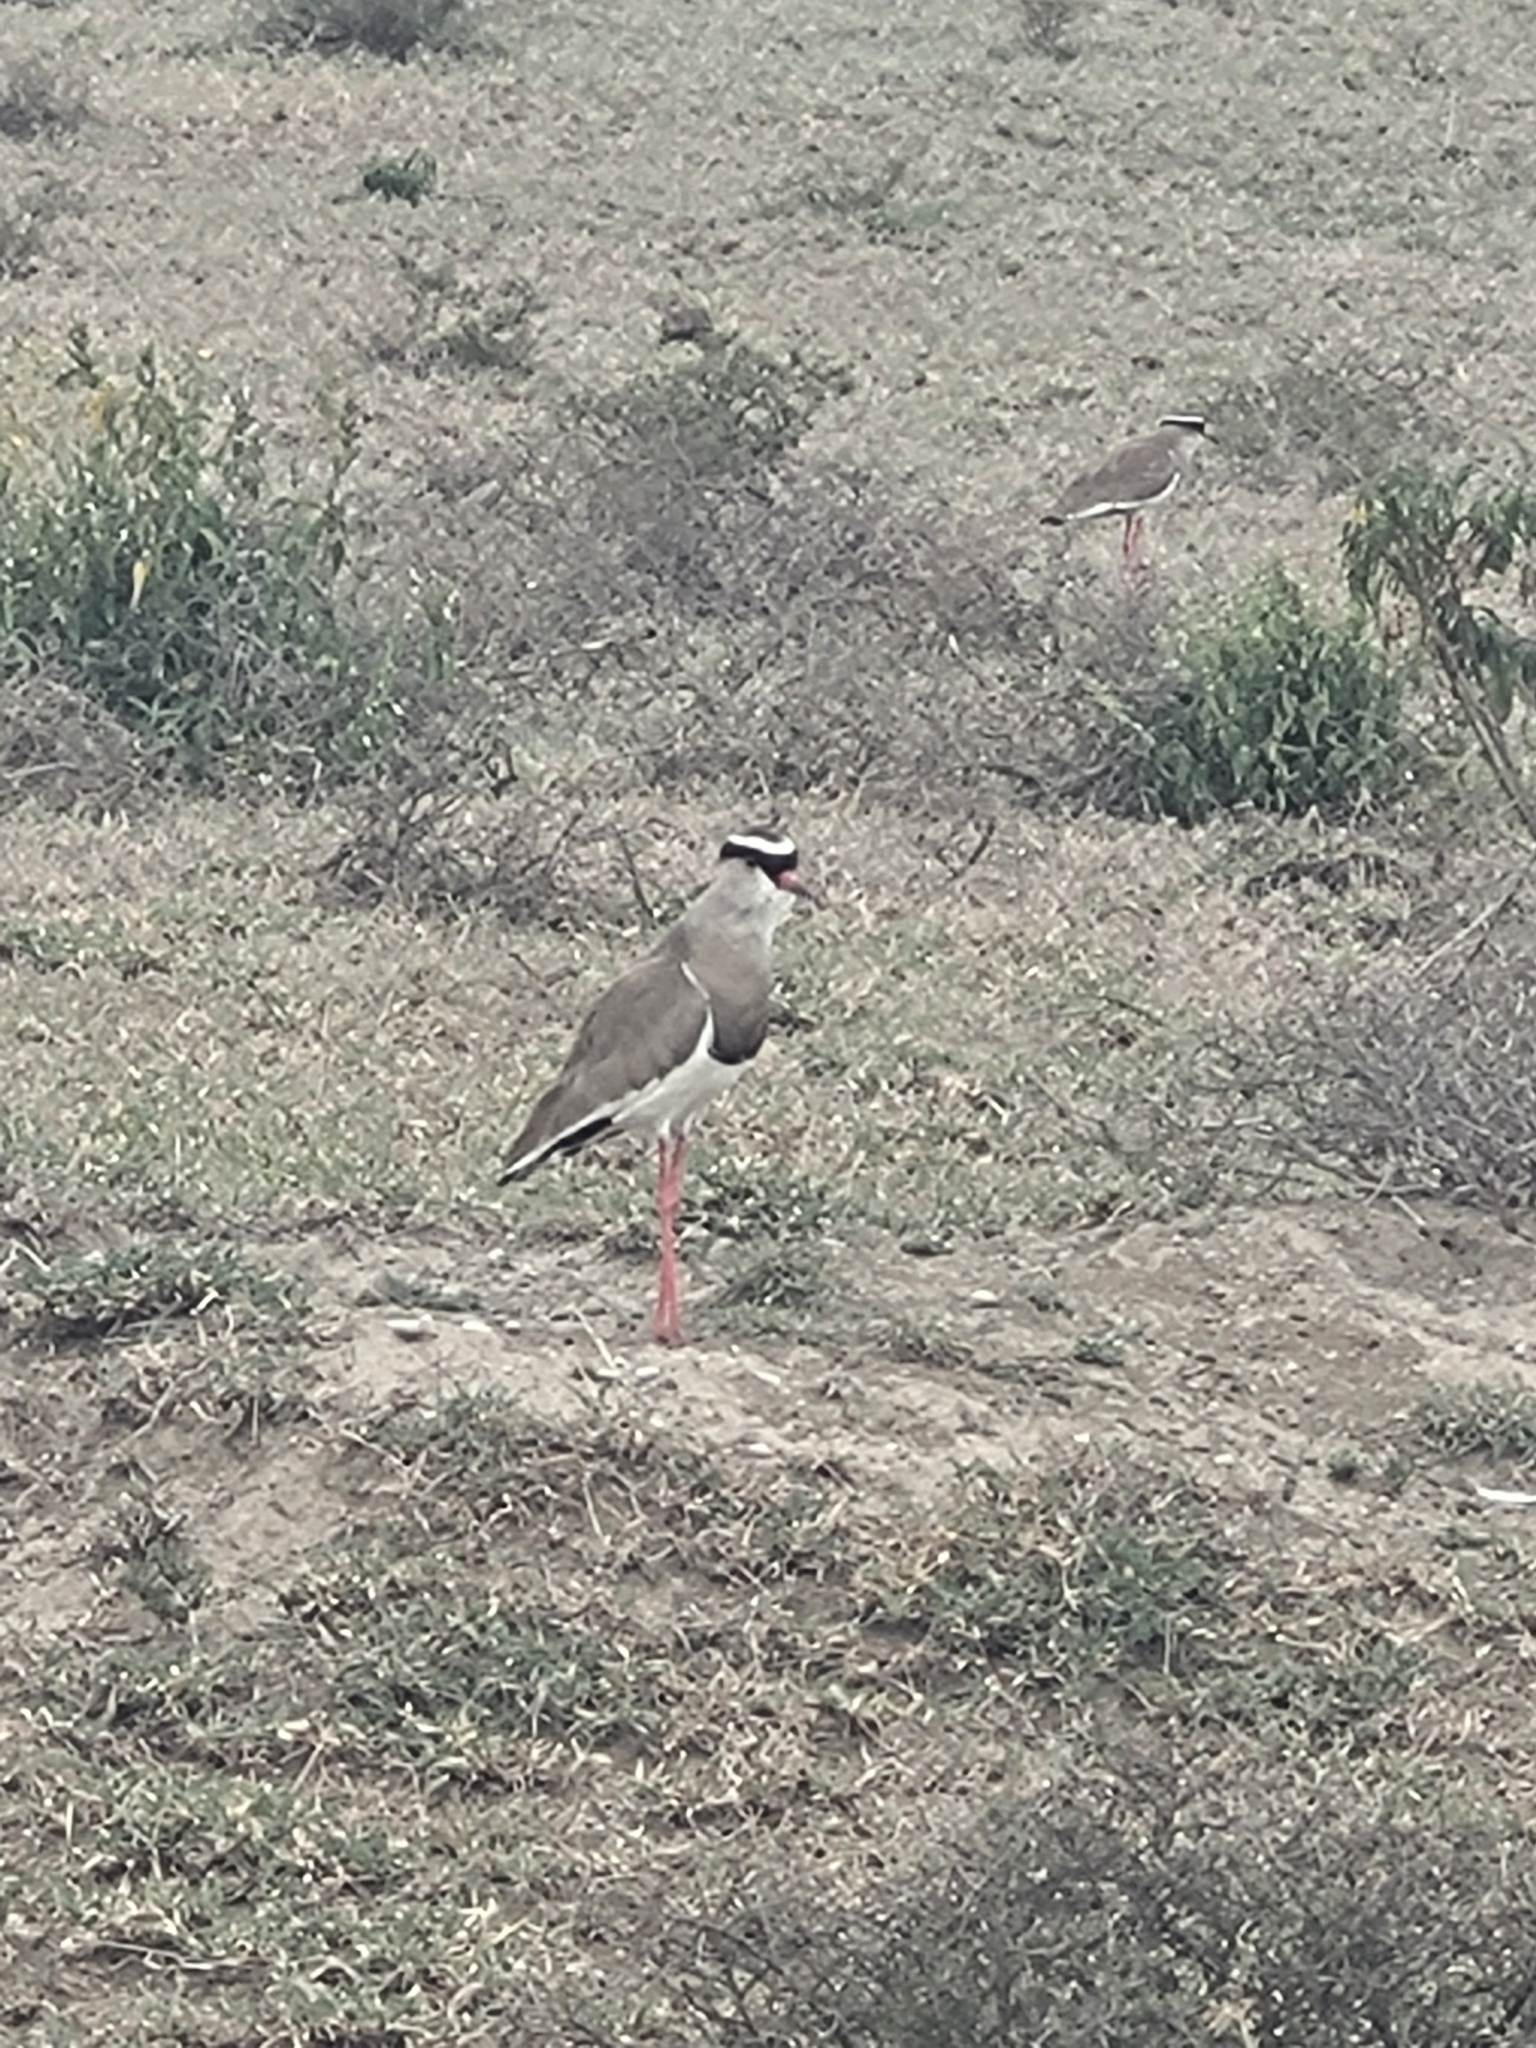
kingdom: Animalia
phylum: Chordata
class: Aves
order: Charadriiformes
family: Charadriidae
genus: Vanellus
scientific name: Vanellus coronatus
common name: Crowned lapwing
